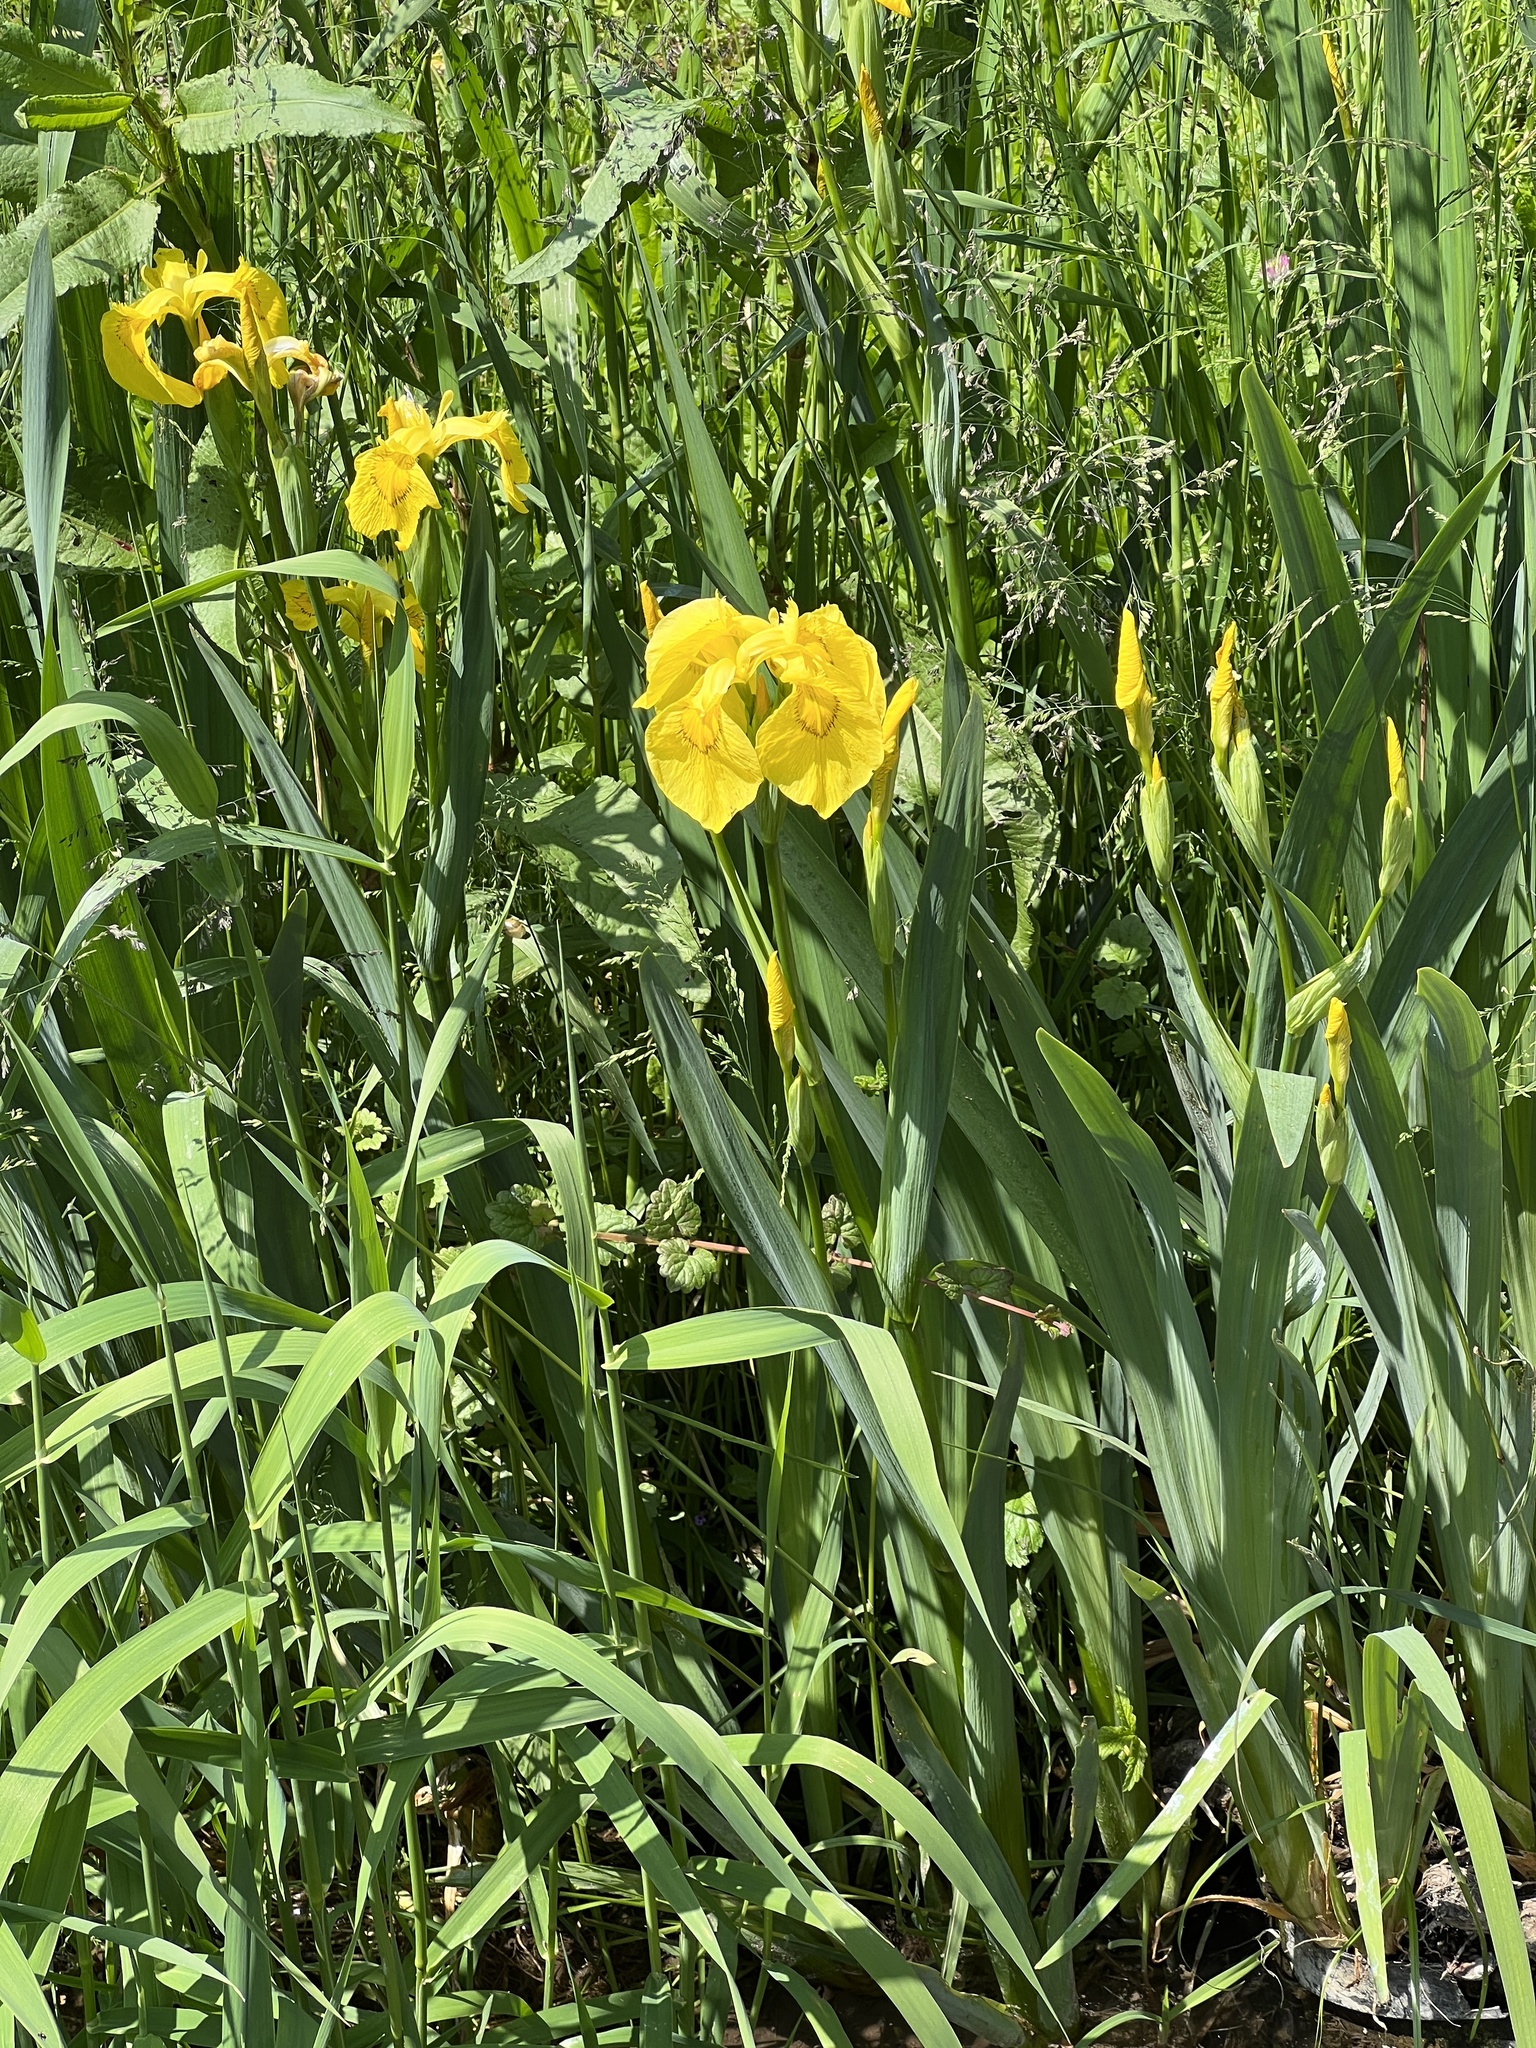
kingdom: Plantae
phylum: Tracheophyta
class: Liliopsida
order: Asparagales
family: Iridaceae
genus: Iris
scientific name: Iris pseudacorus
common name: Yellow flag
